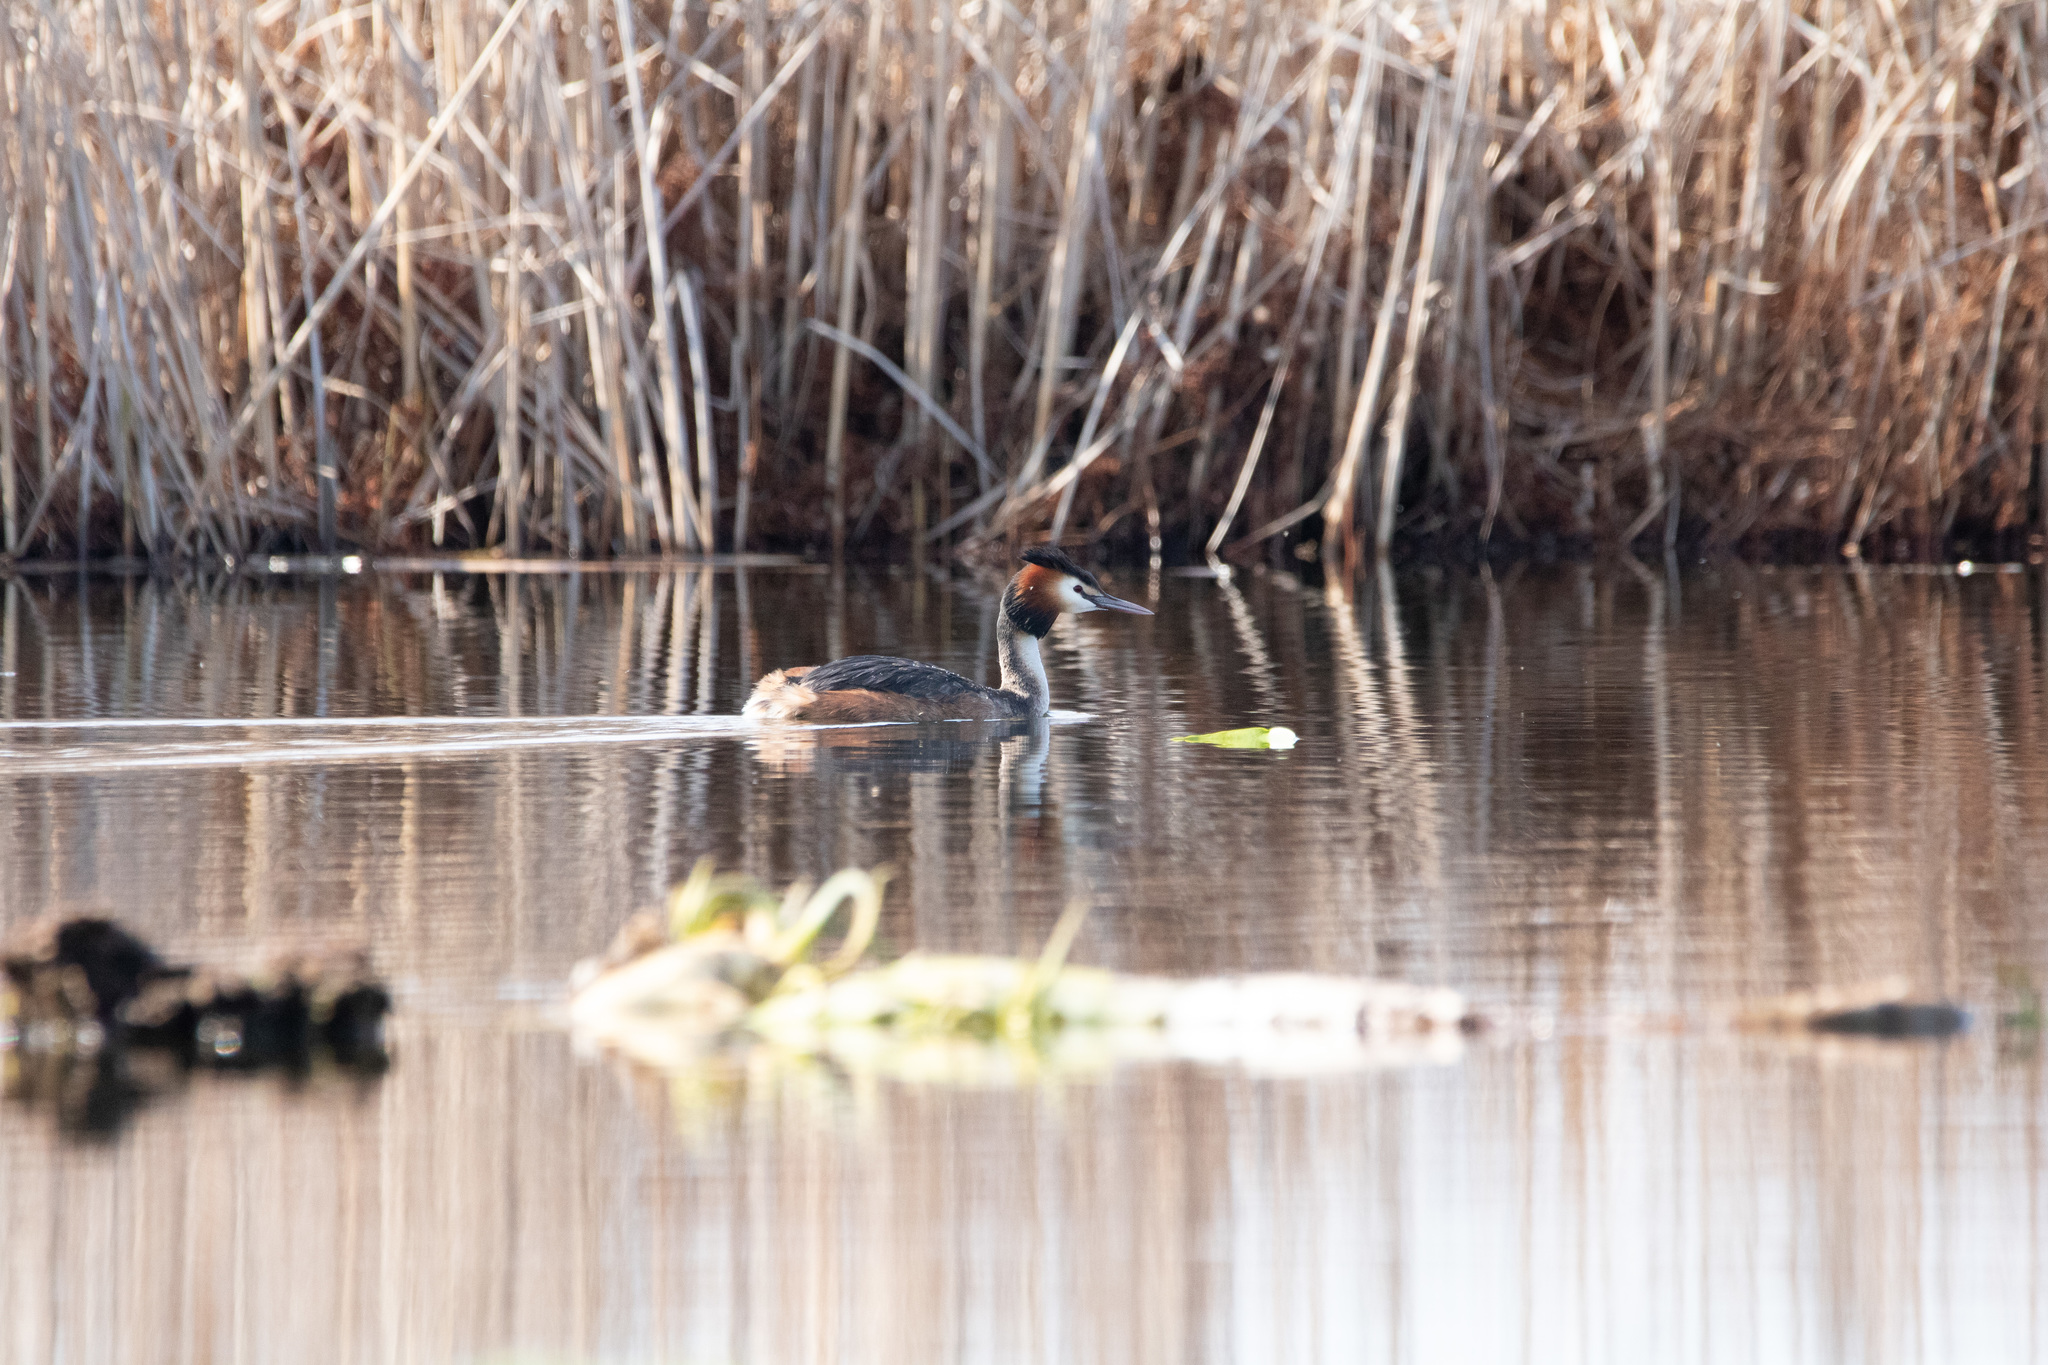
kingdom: Animalia
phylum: Chordata
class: Aves
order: Podicipediformes
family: Podicipedidae
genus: Podiceps
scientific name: Podiceps cristatus
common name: Great crested grebe
